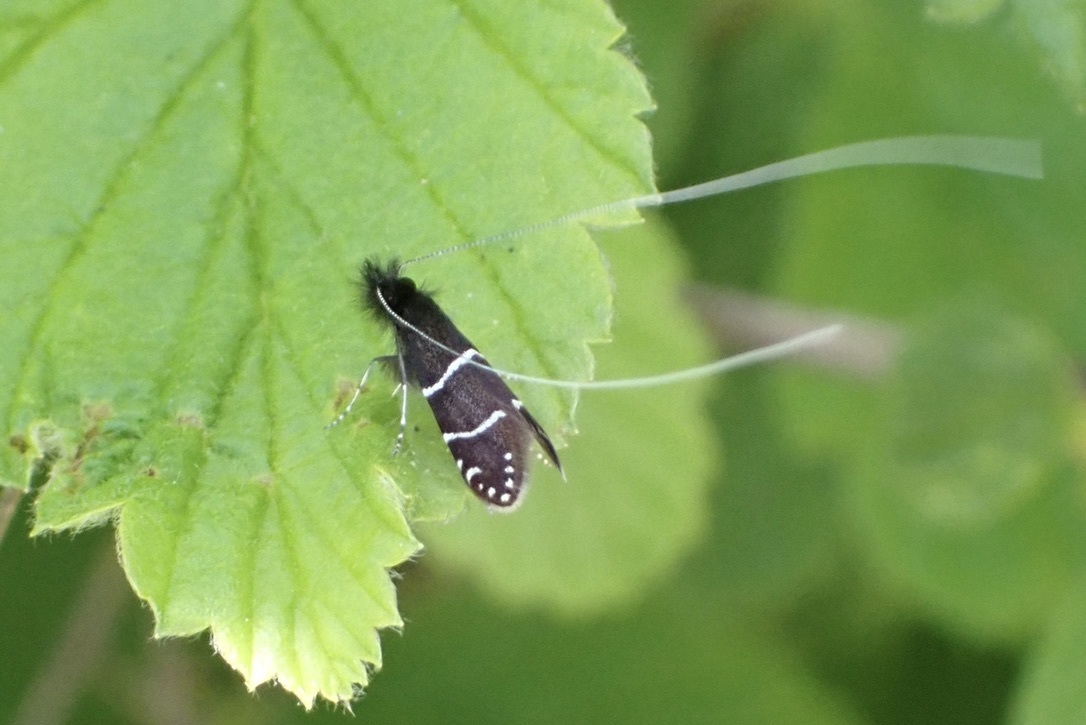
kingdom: Animalia
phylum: Arthropoda
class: Insecta
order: Lepidoptera
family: Adelidae
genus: Adela
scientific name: Adela septentrionella
